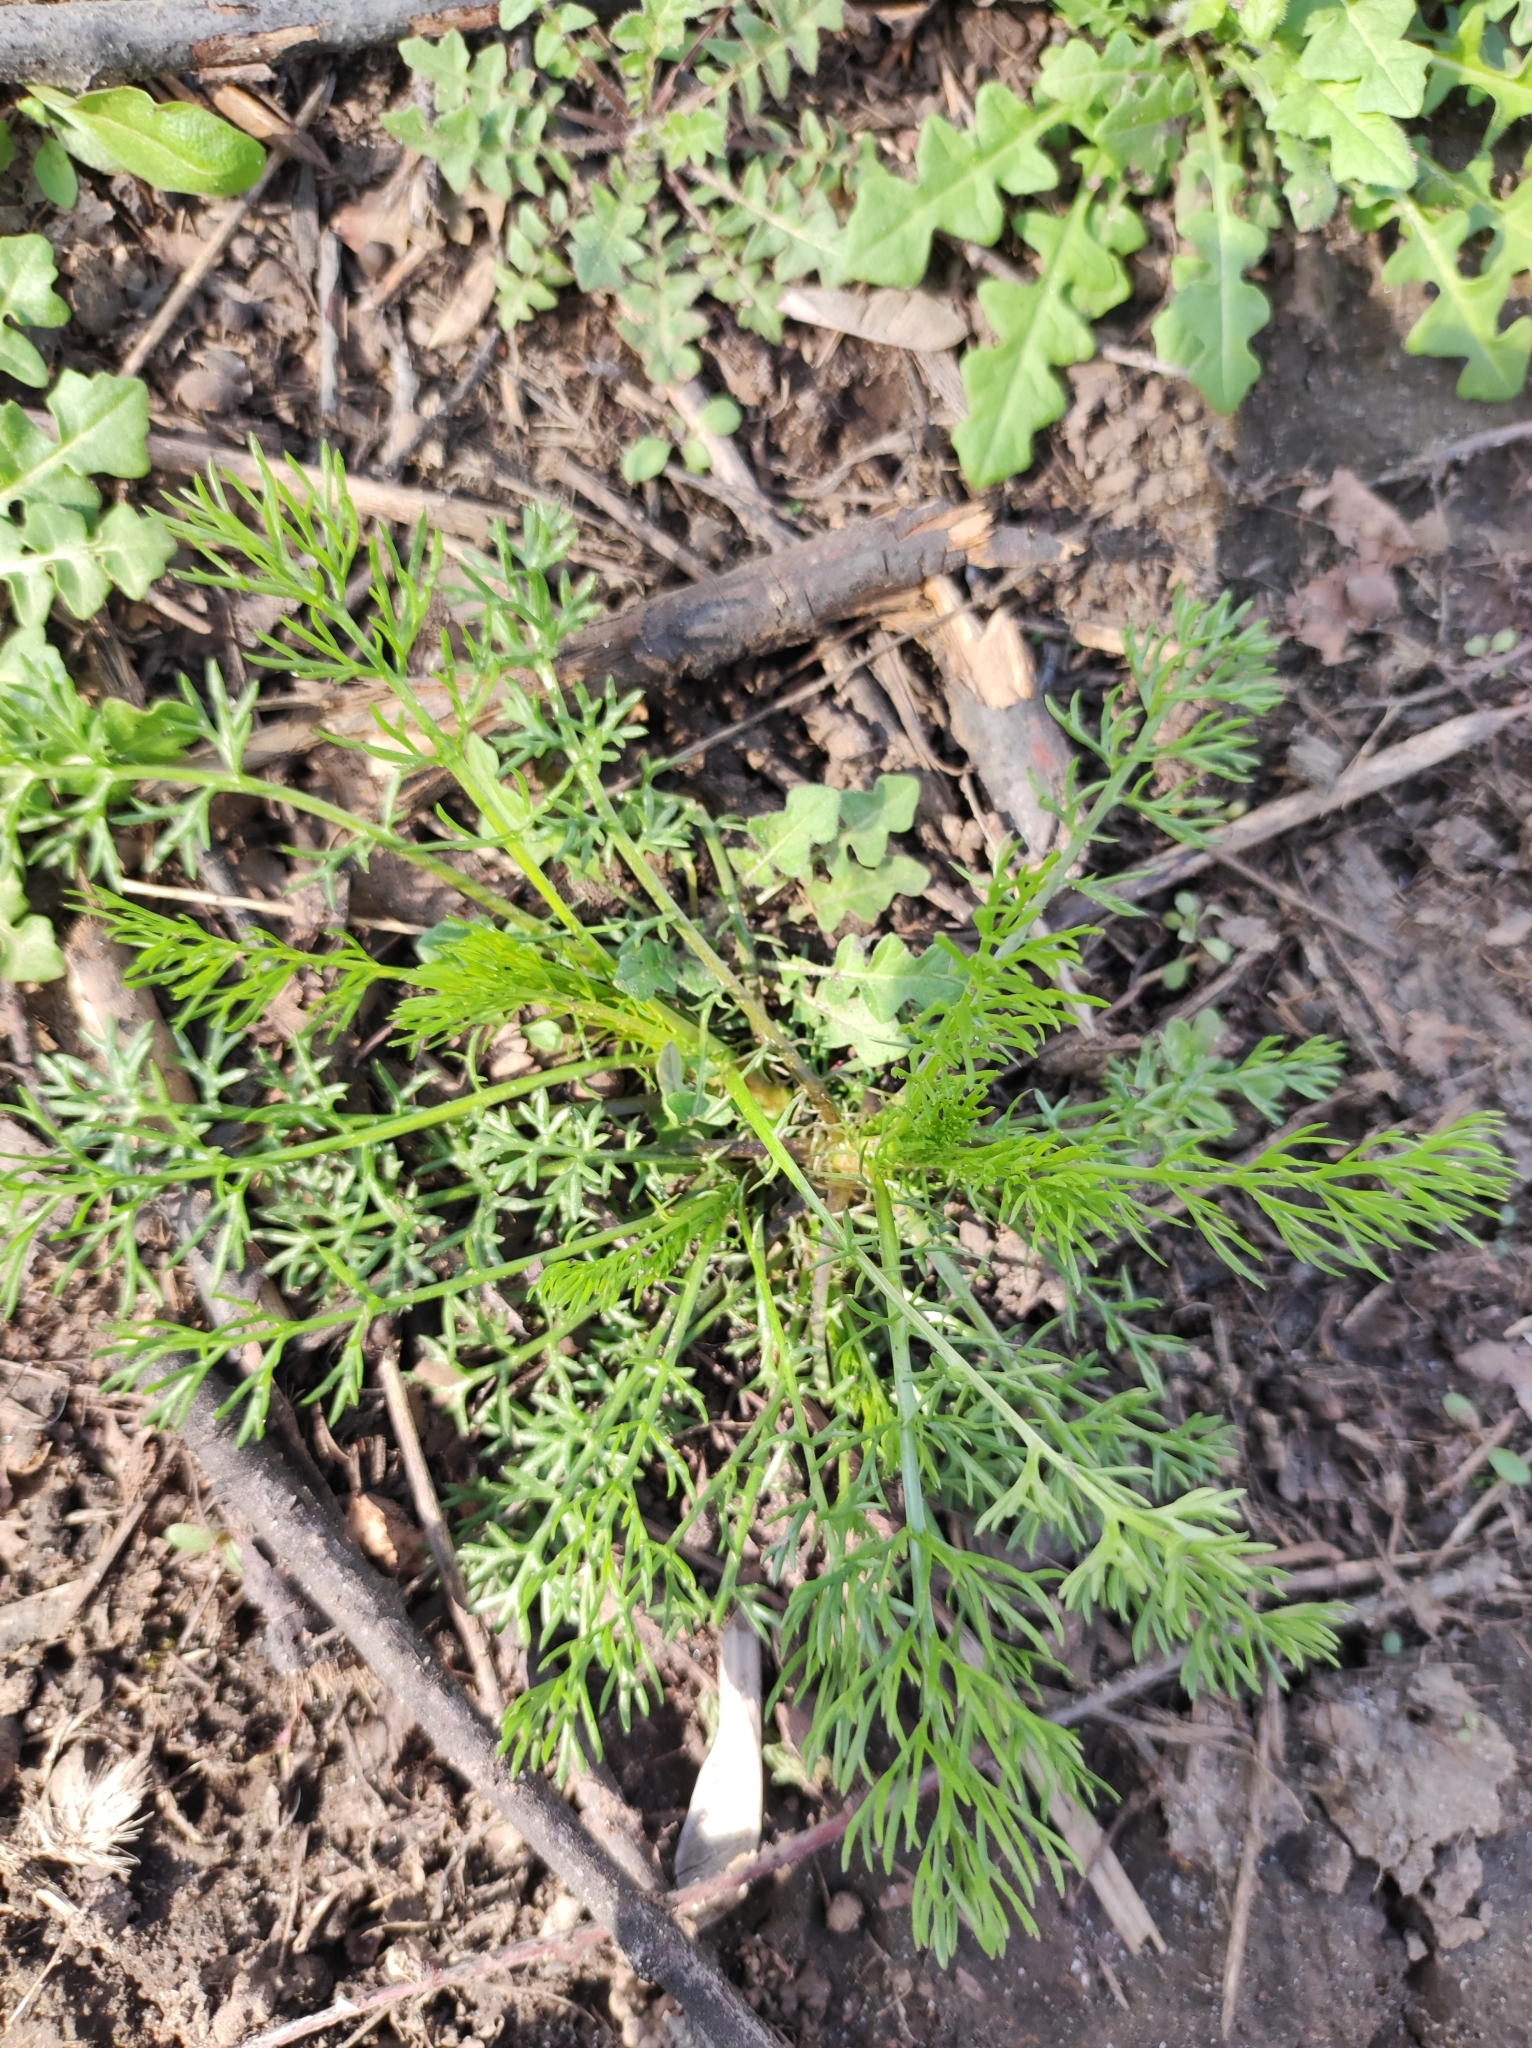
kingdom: Plantae
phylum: Tracheophyta
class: Magnoliopsida
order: Asterales
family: Asteraceae
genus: Tripleurospermum
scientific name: Tripleurospermum inodorum
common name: Scentless mayweed
